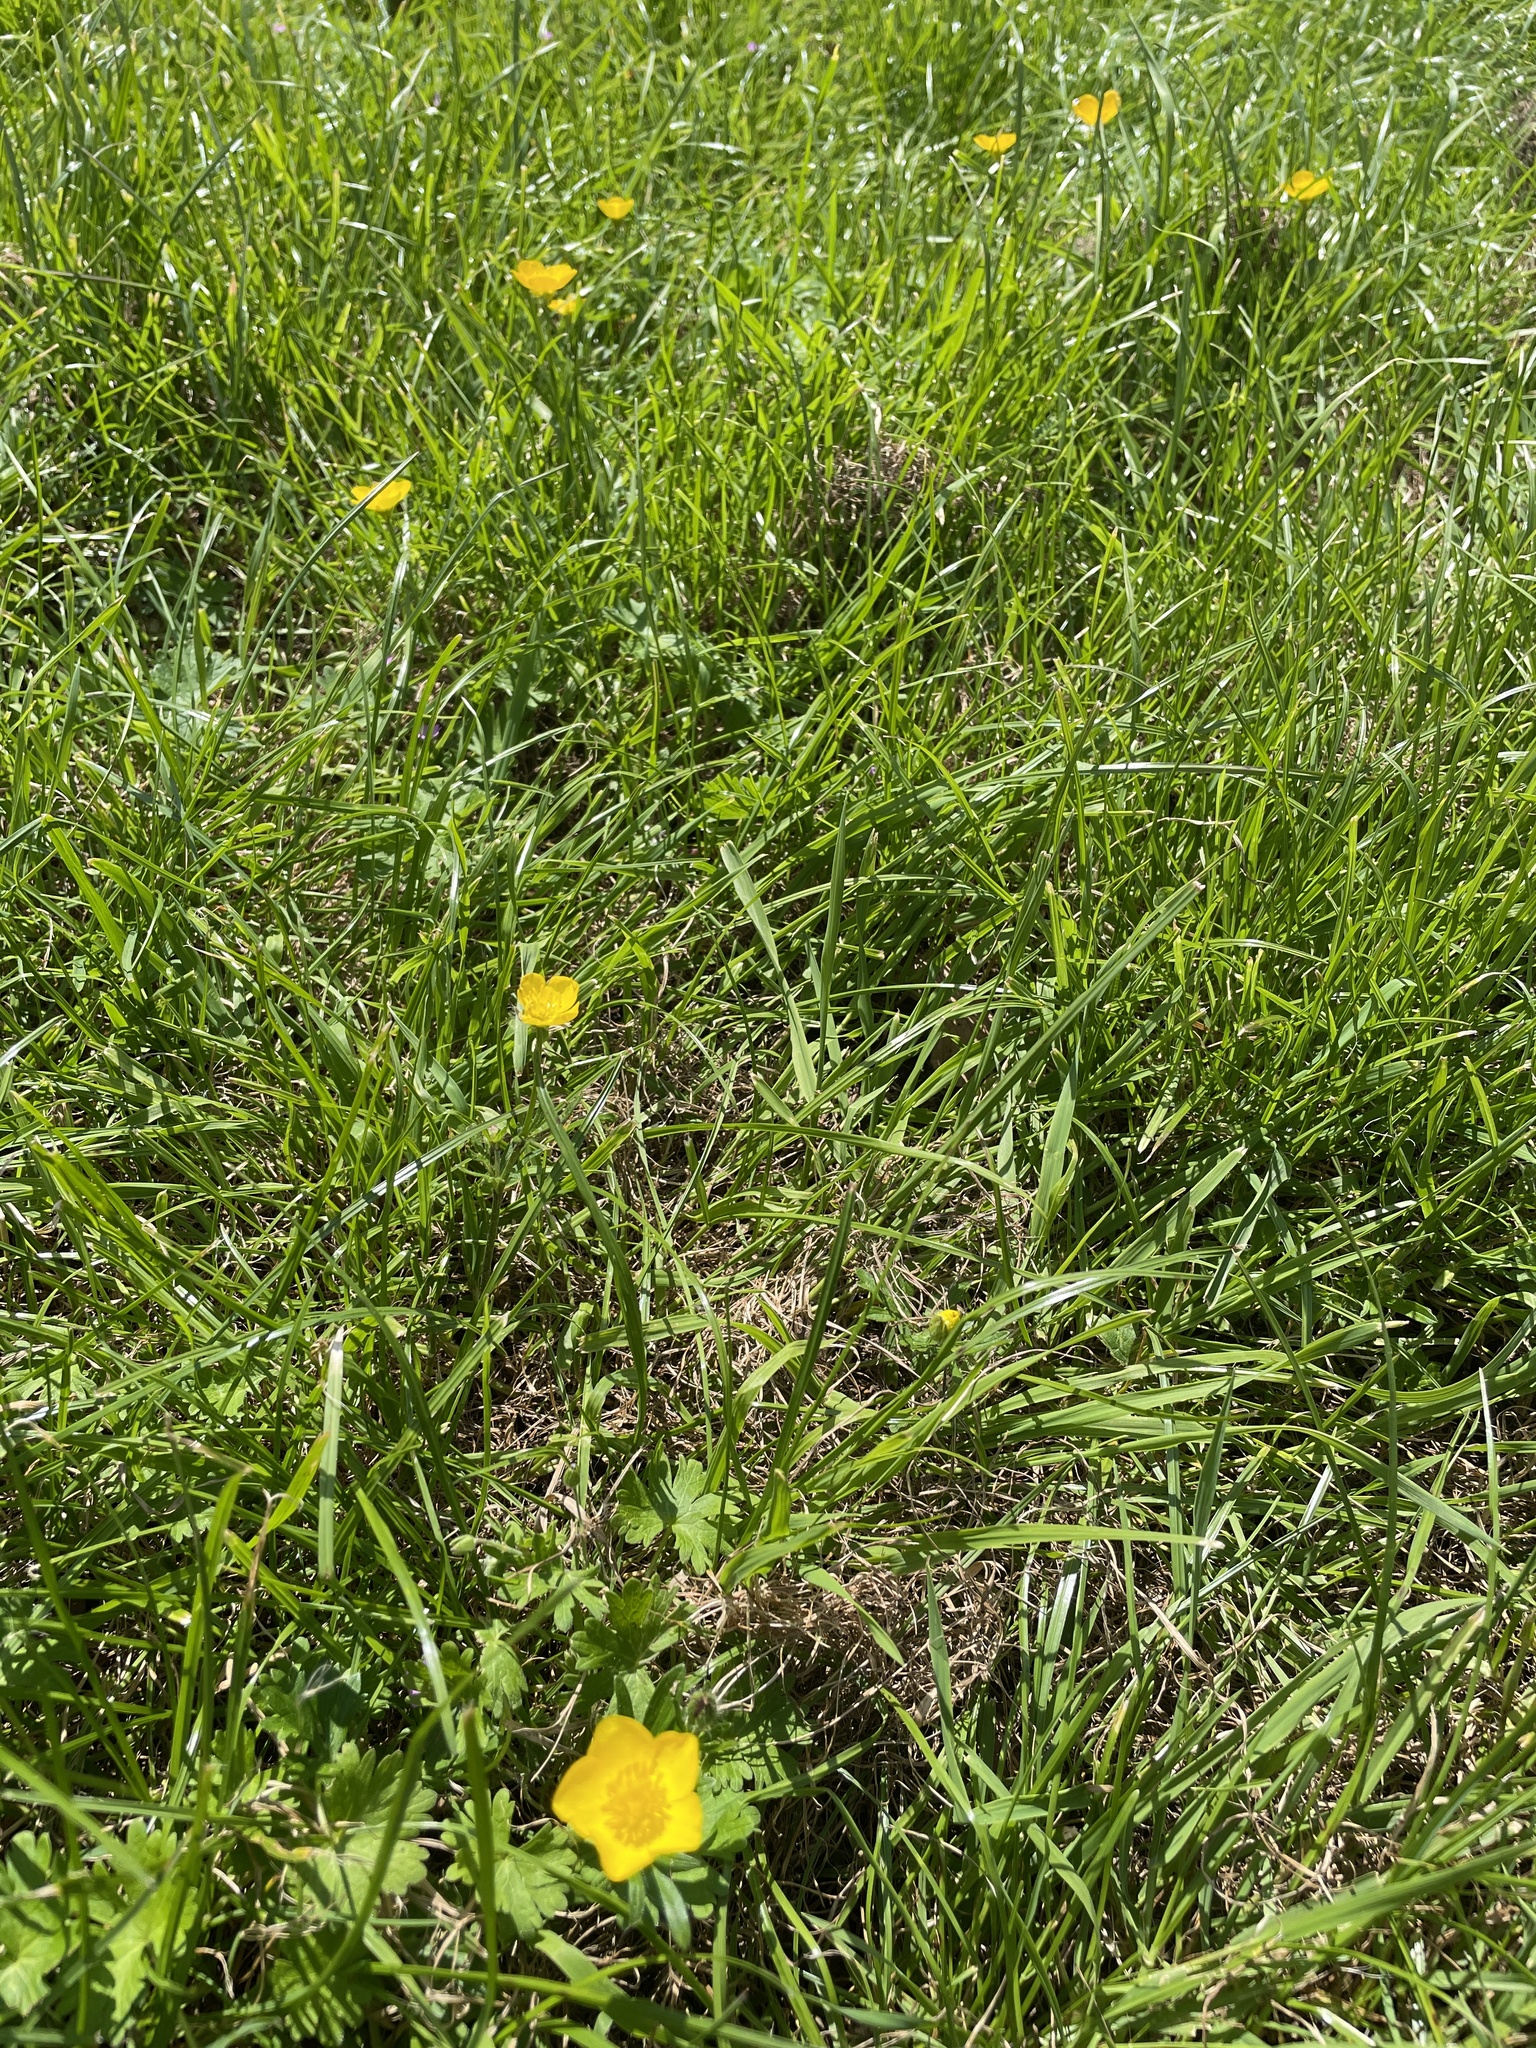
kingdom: Plantae
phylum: Tracheophyta
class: Magnoliopsida
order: Ranunculales
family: Ranunculaceae
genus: Ranunculus
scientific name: Ranunculus bulbosus
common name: Bulbous buttercup
